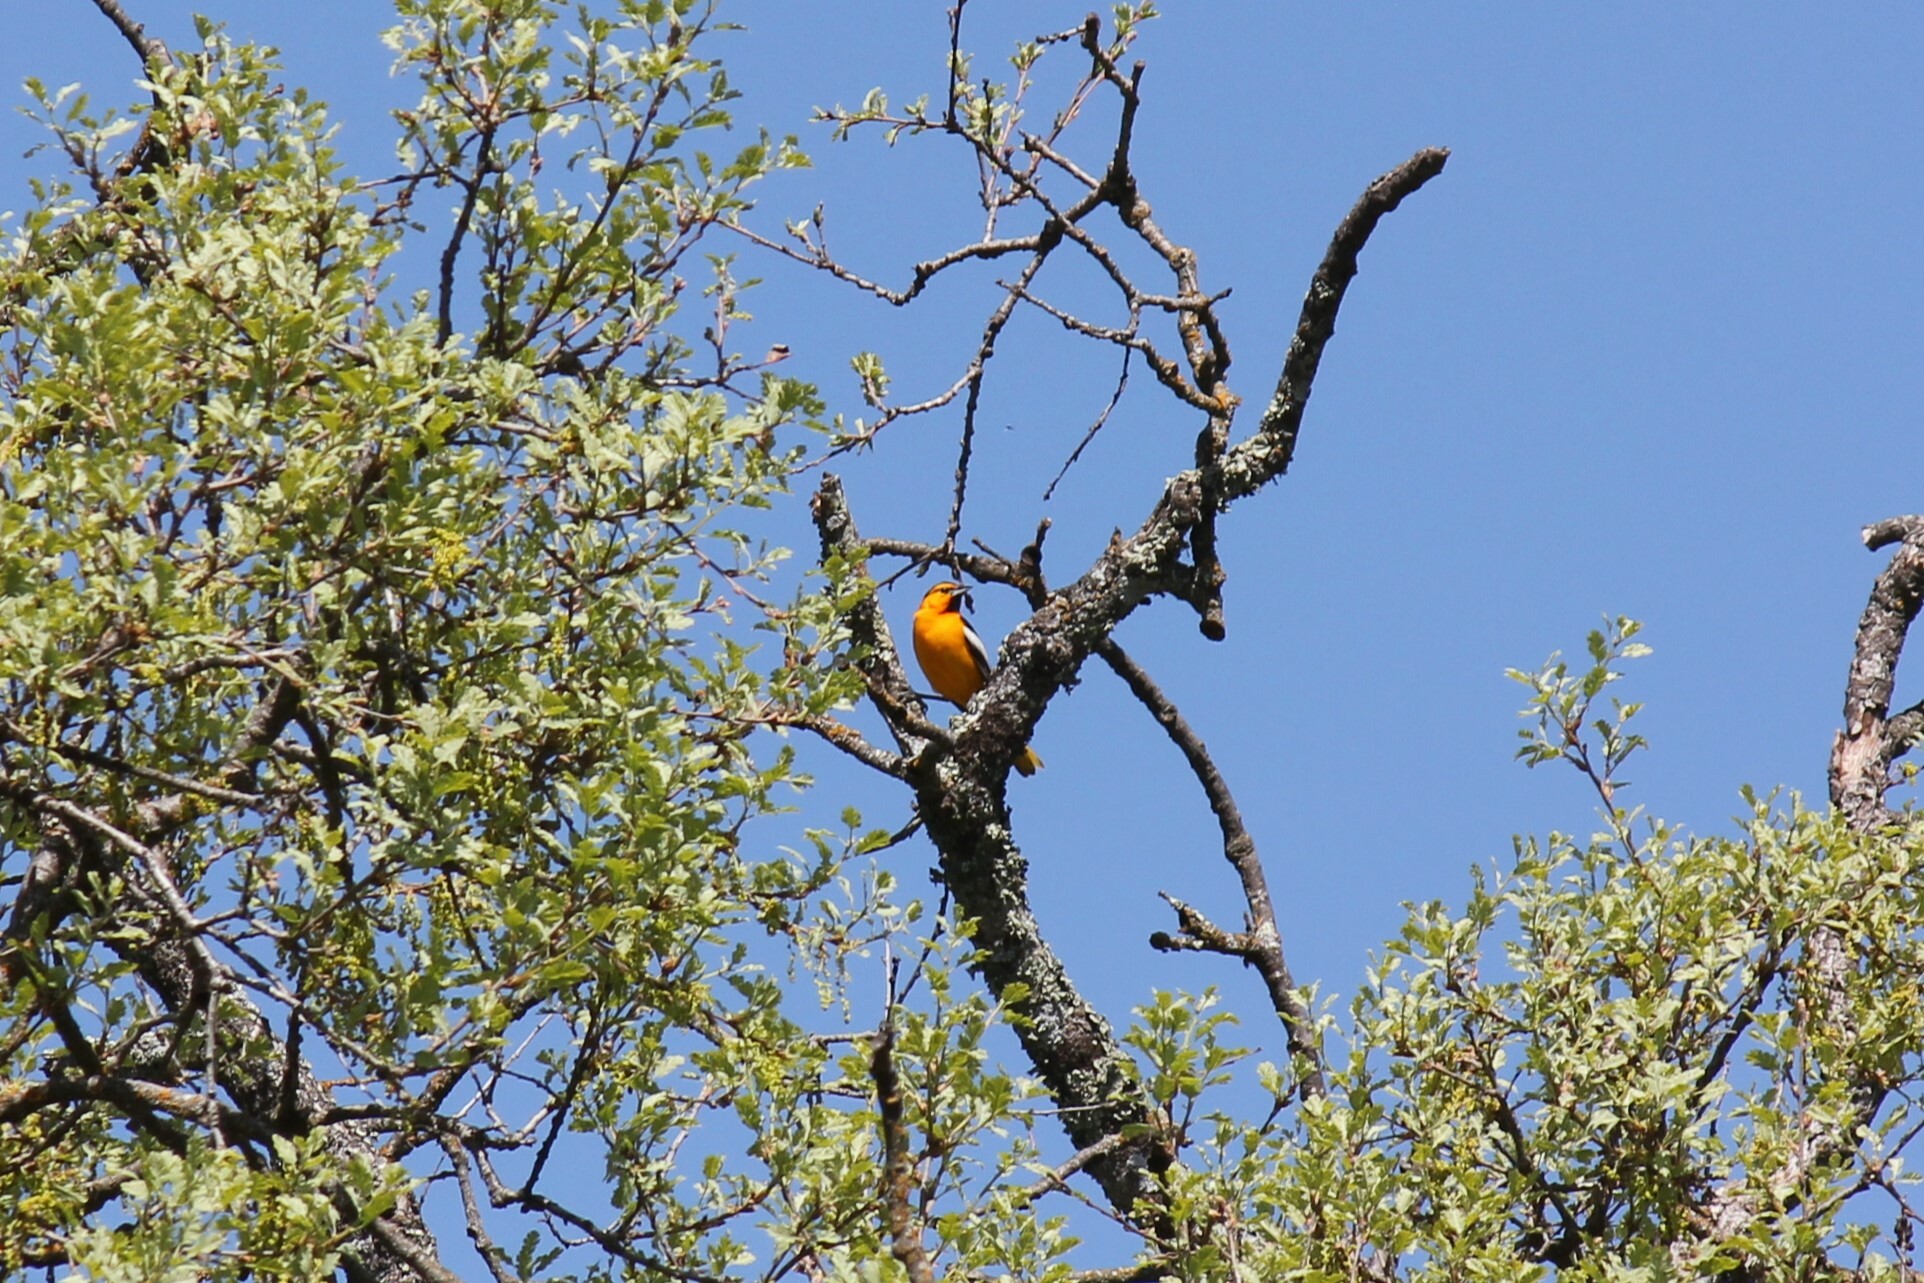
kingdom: Animalia
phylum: Chordata
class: Aves
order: Passeriformes
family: Icteridae
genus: Icterus
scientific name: Icterus bullockii
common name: Bullock's oriole
